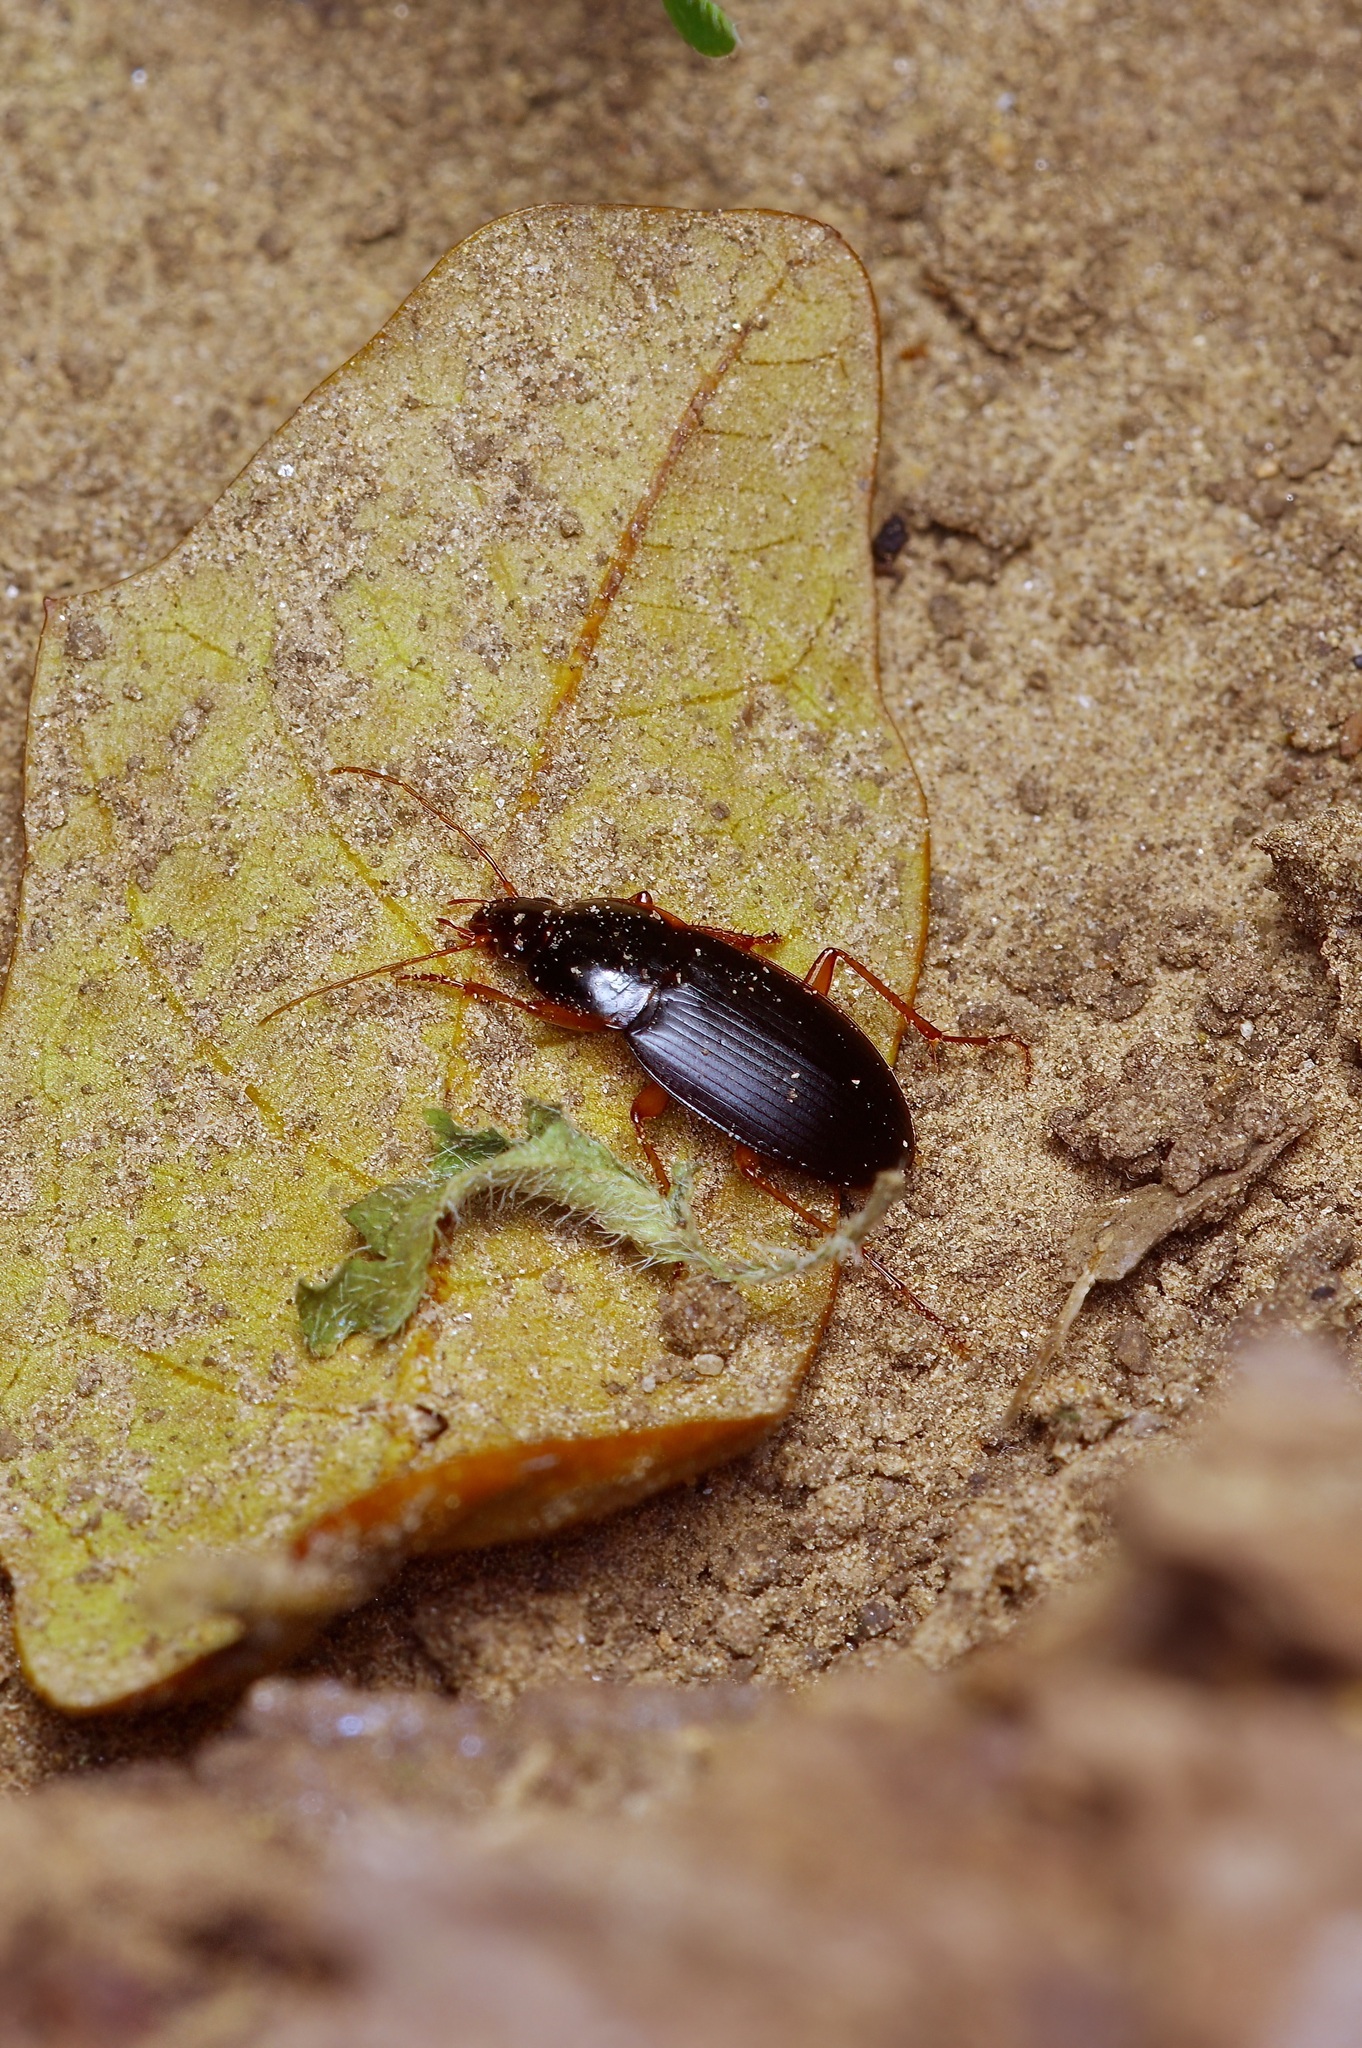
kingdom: Animalia
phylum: Arthropoda
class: Insecta
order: Coleoptera
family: Carabidae
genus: Calathus
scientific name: Calathus opaculus
